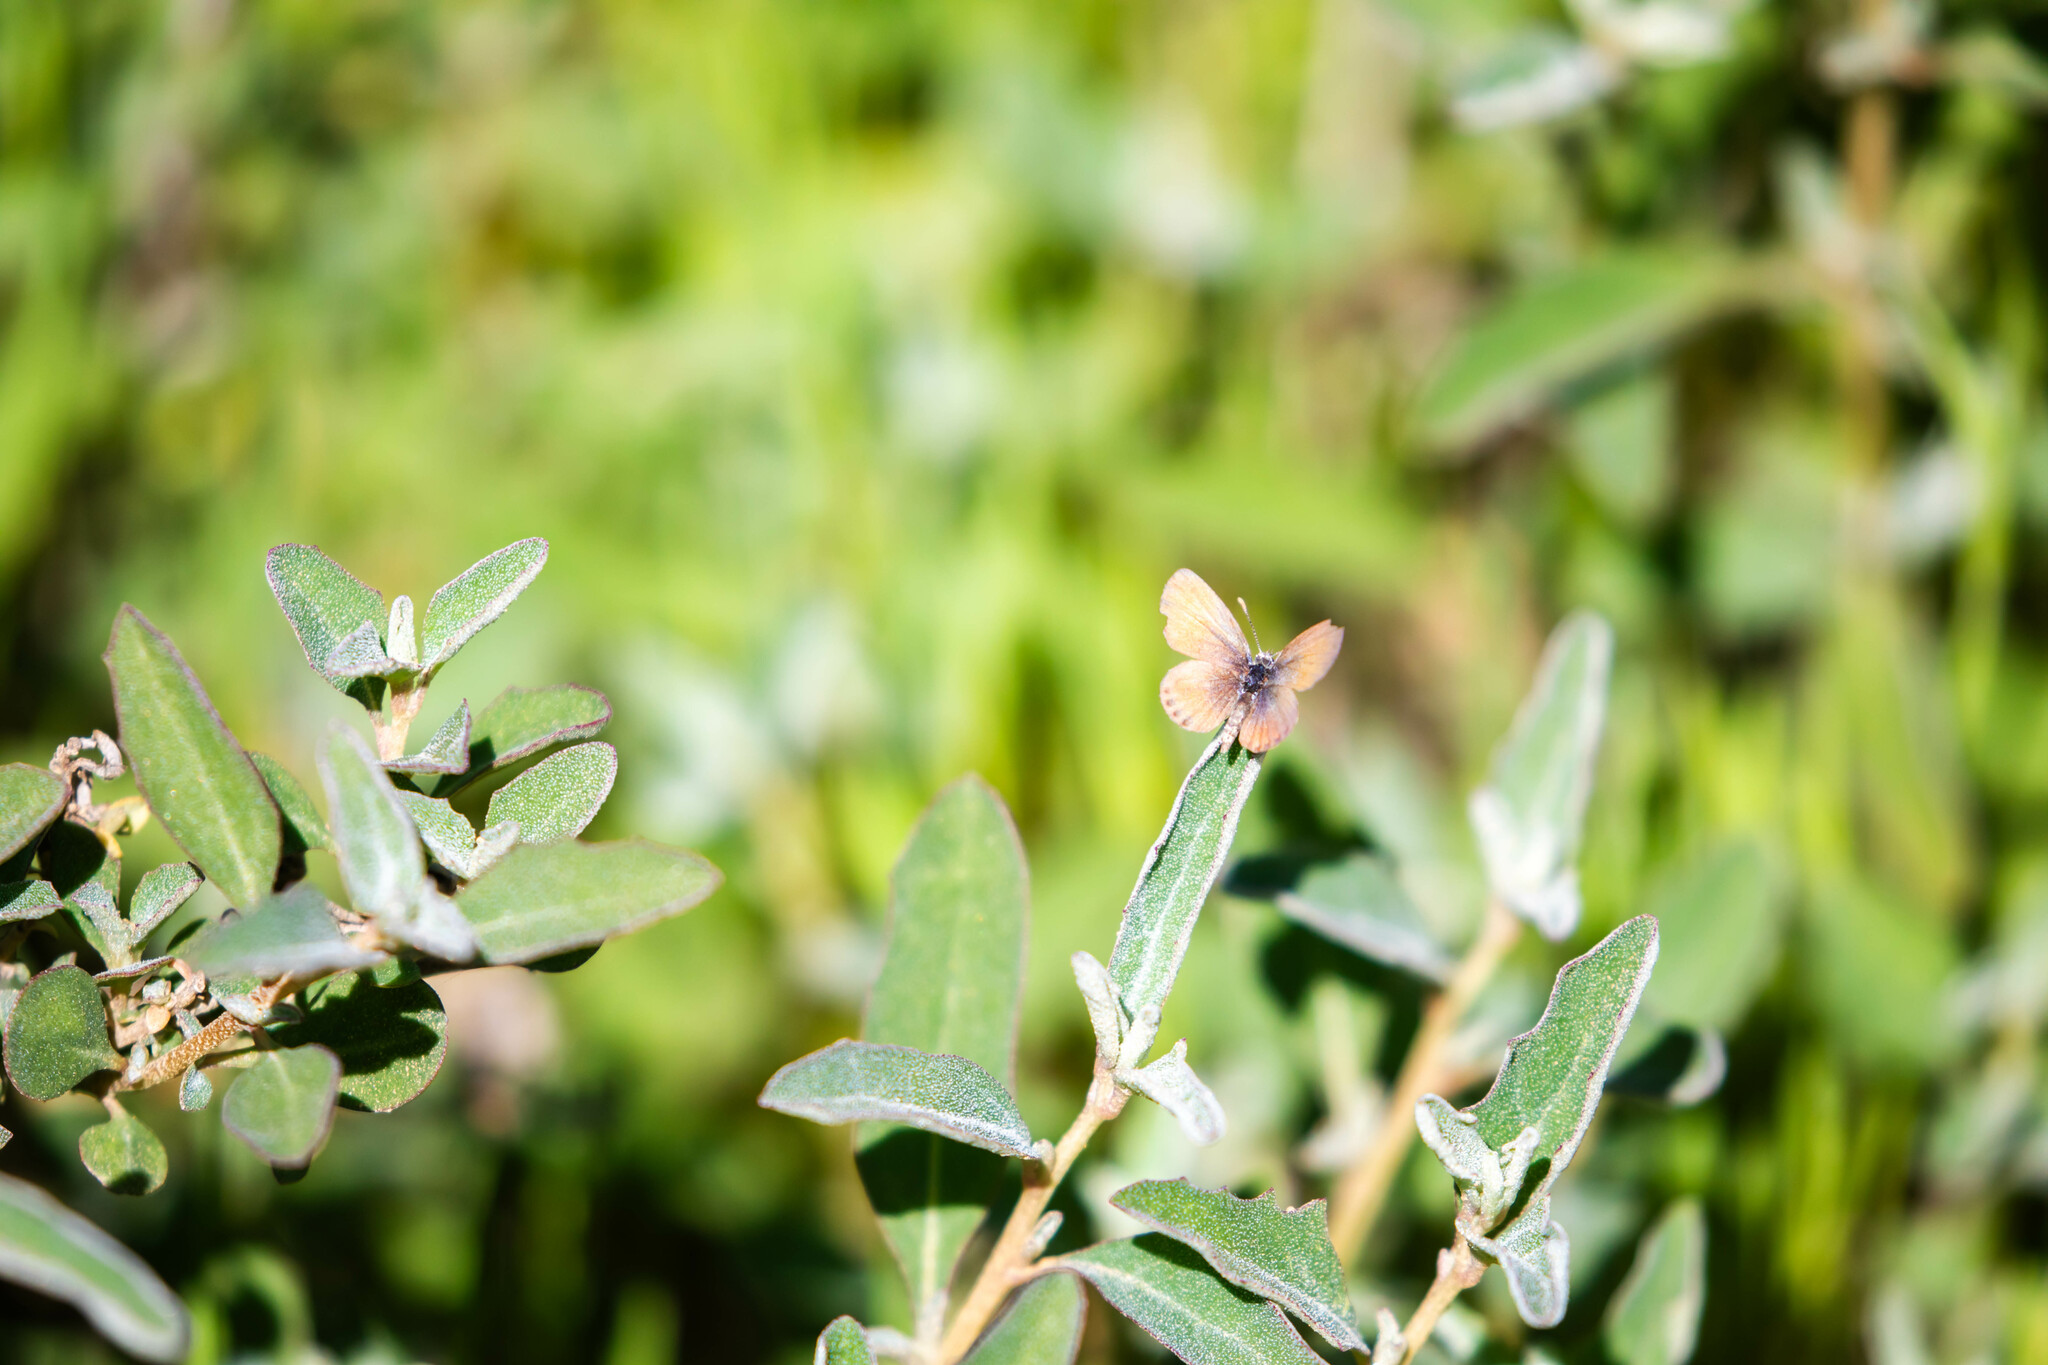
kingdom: Animalia
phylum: Arthropoda
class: Insecta
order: Lepidoptera
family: Lycaenidae
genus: Brephidium
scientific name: Brephidium exilis
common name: Pygmy blue
